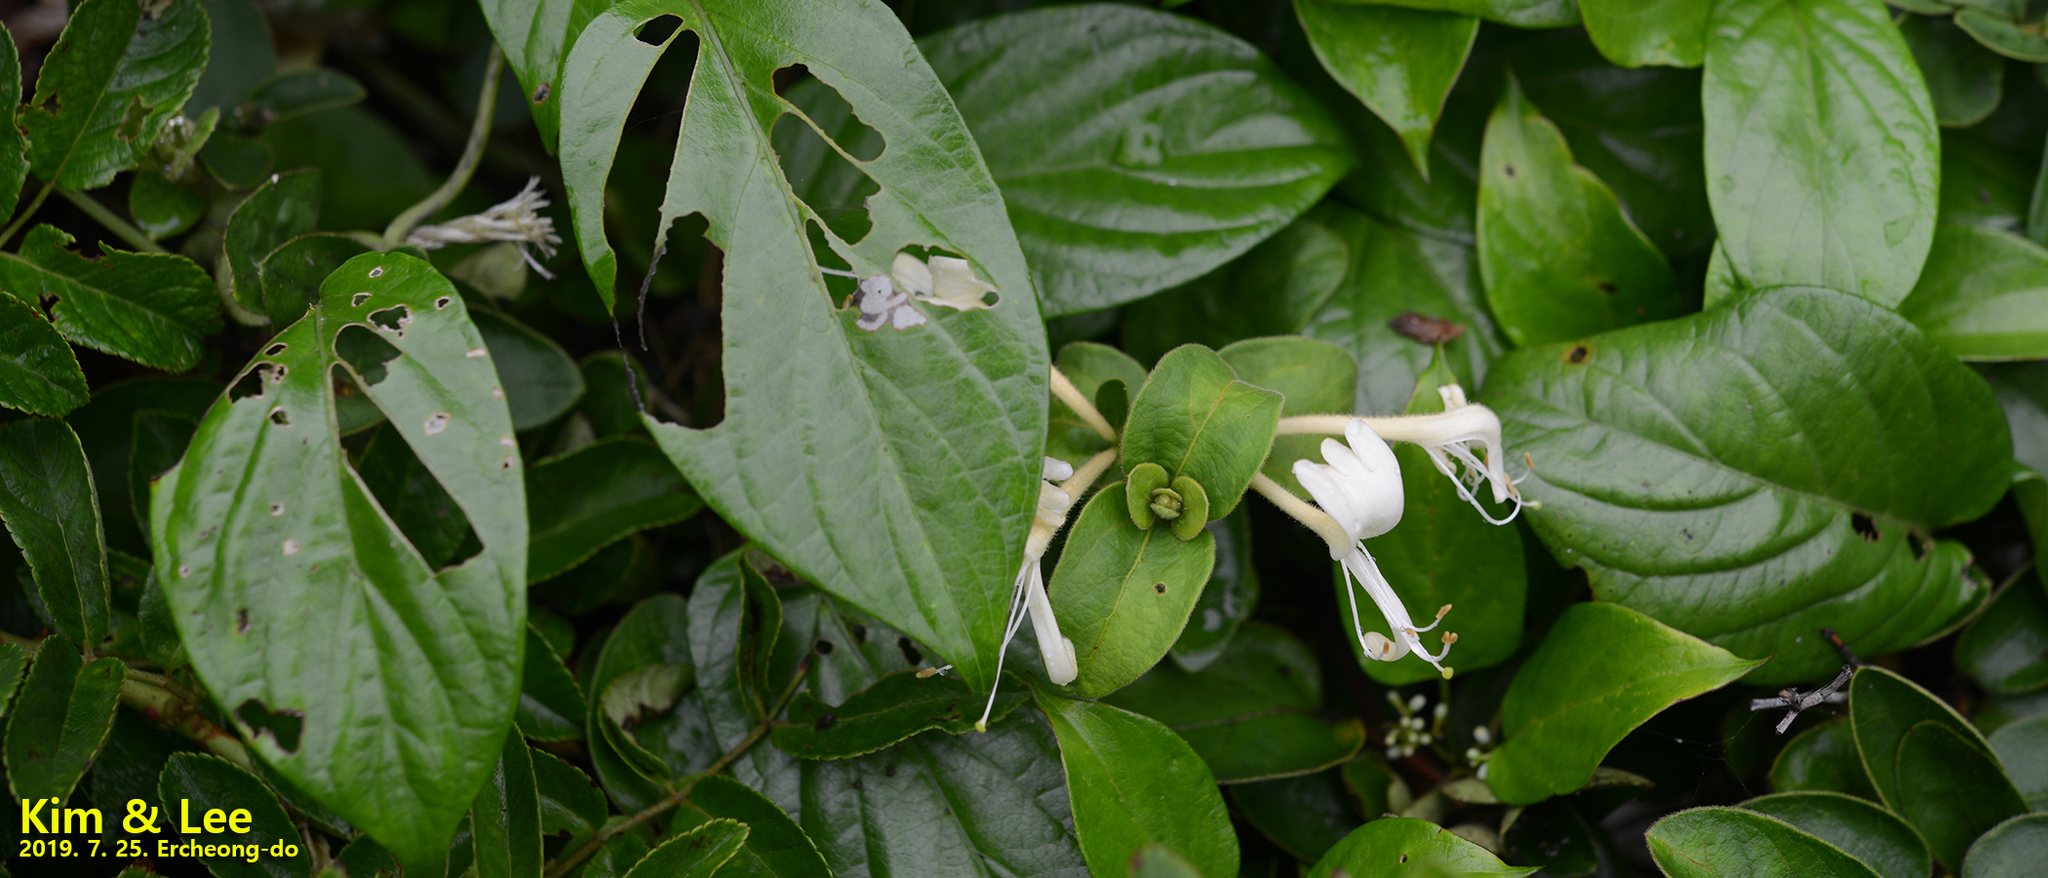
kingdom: Plantae
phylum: Tracheophyta
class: Magnoliopsida
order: Dipsacales
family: Caprifoliaceae
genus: Lonicera
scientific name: Lonicera japonica
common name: Japanese honeysuckle
